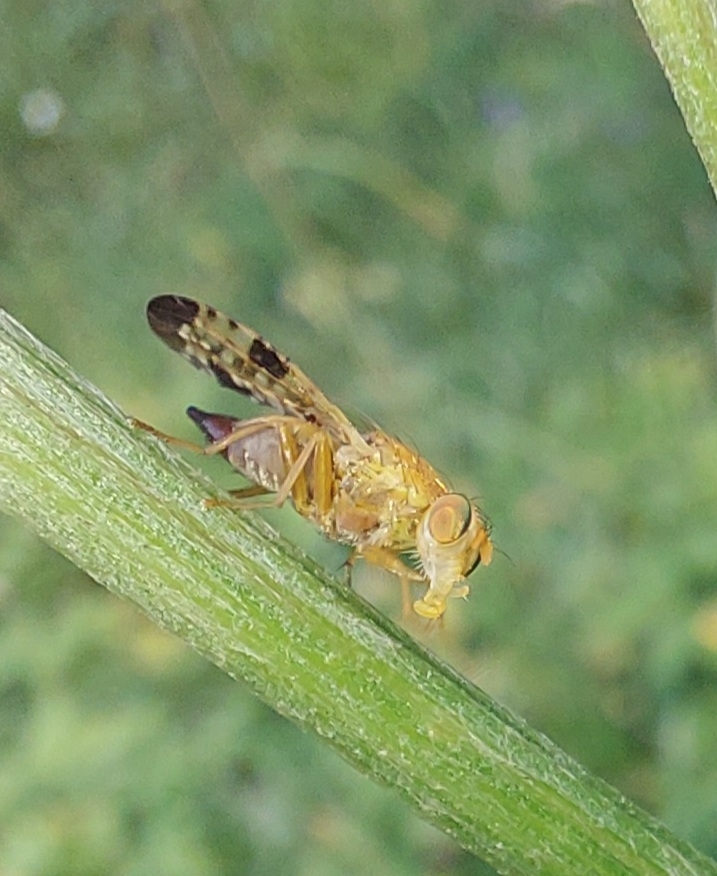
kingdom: Animalia
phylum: Arthropoda
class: Insecta
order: Diptera
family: Tephritidae
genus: Xyphosia
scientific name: Xyphosia miliaria
